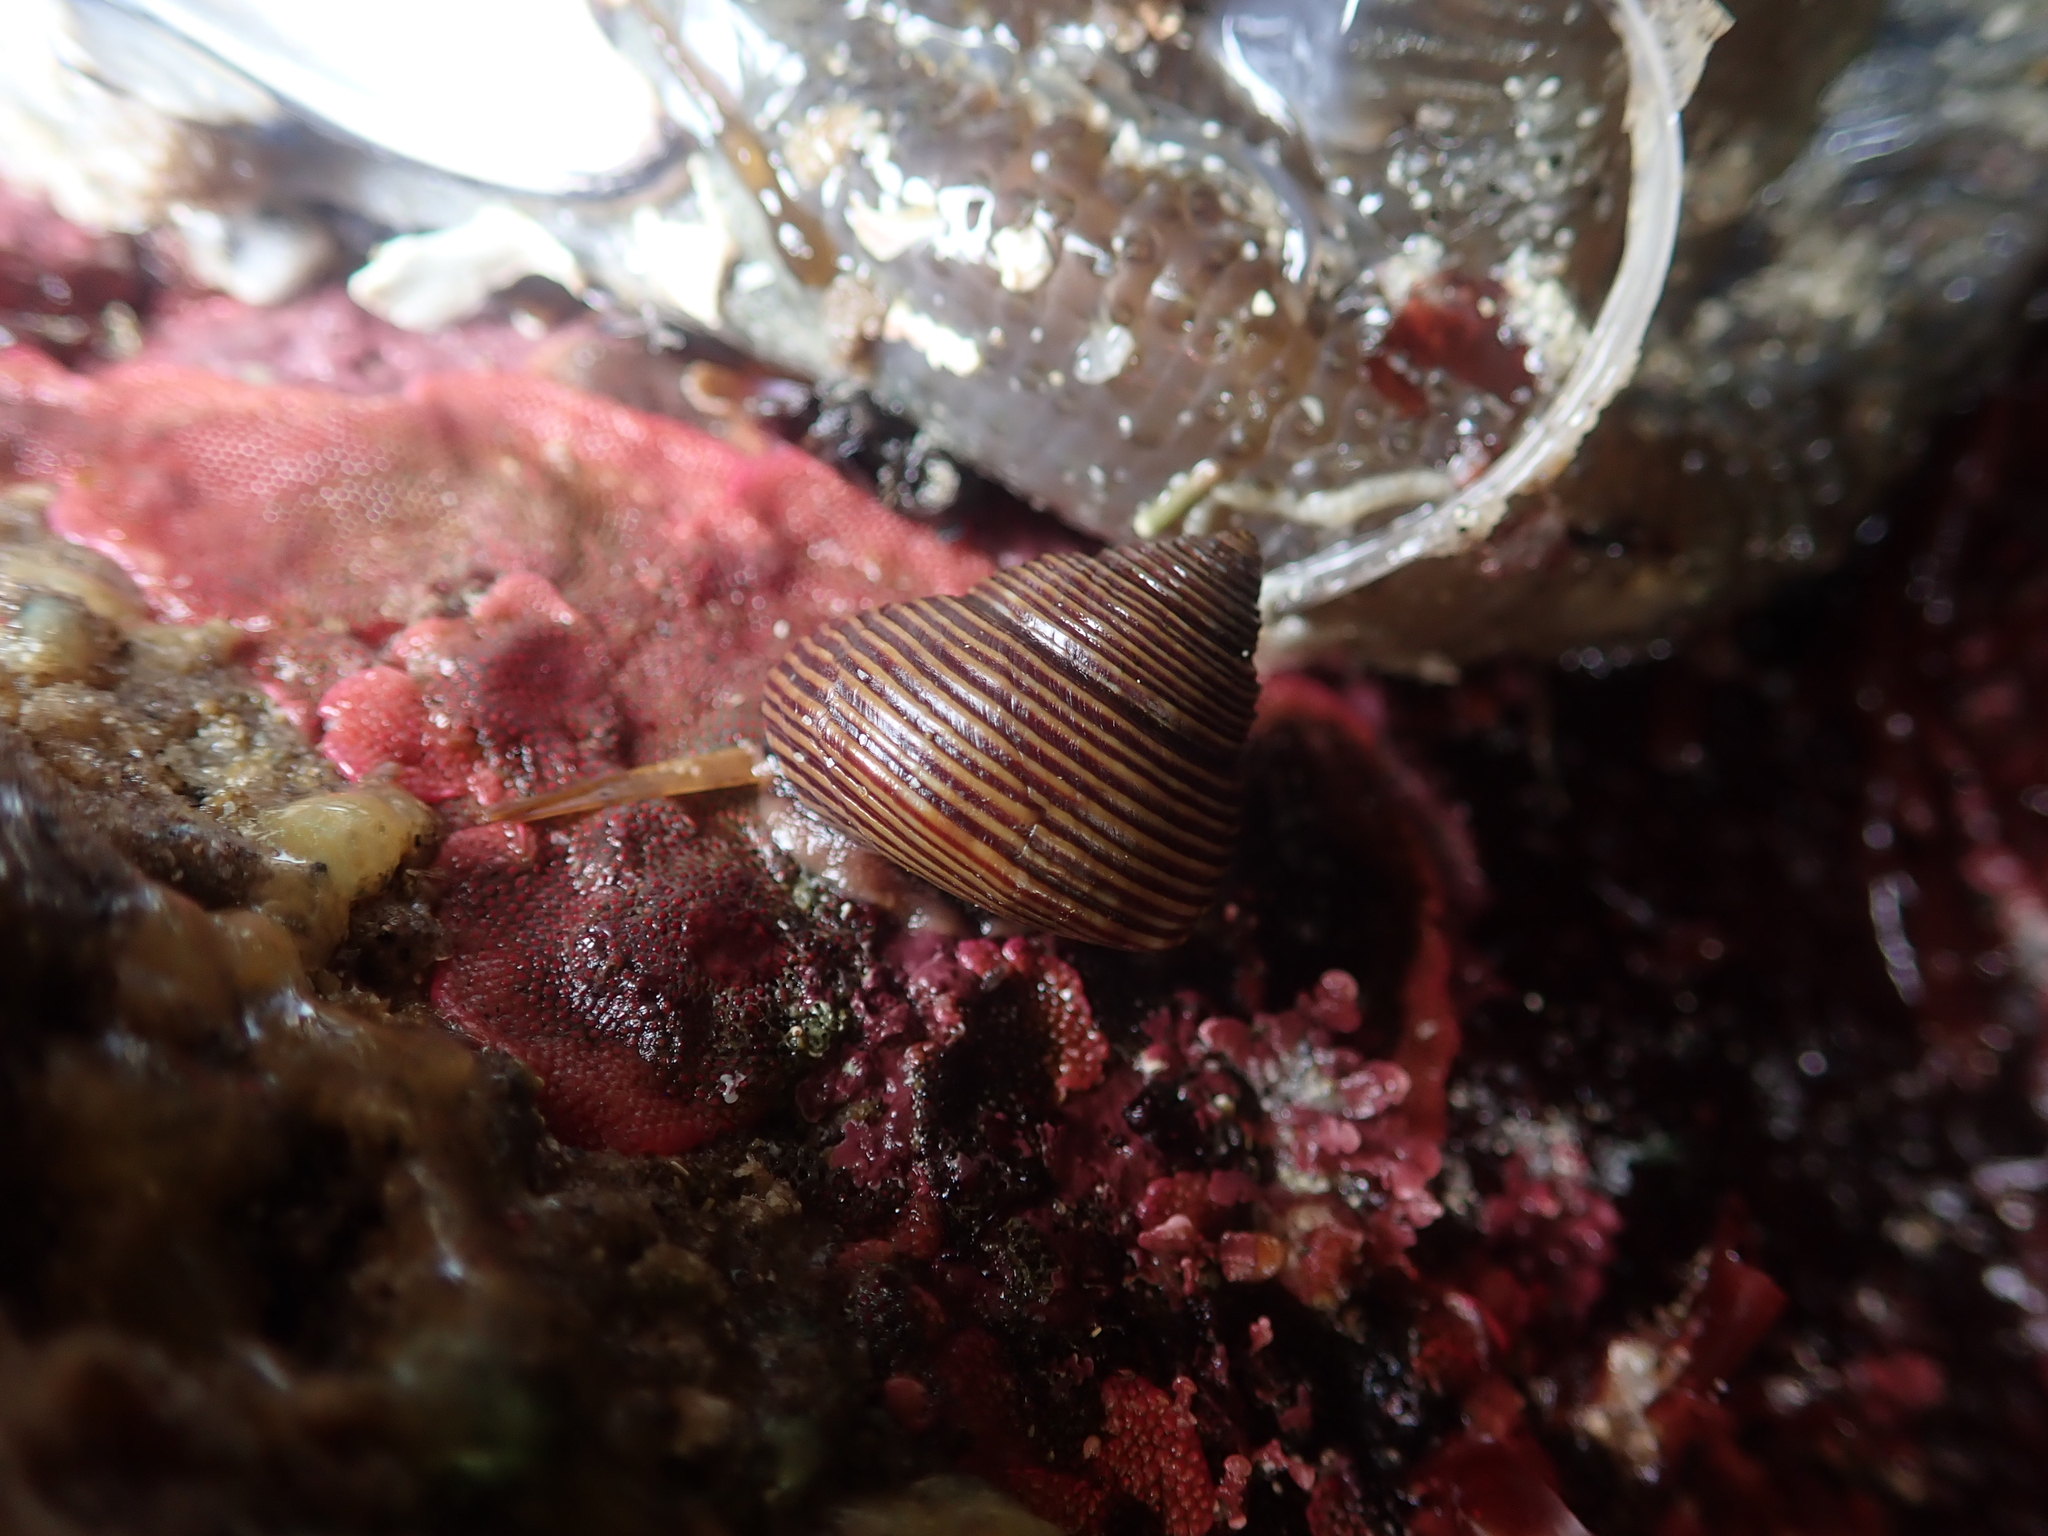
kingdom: Animalia
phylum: Mollusca
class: Gastropoda
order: Trochida
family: Calliostomatidae
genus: Calliostoma
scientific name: Calliostoma ligatum
